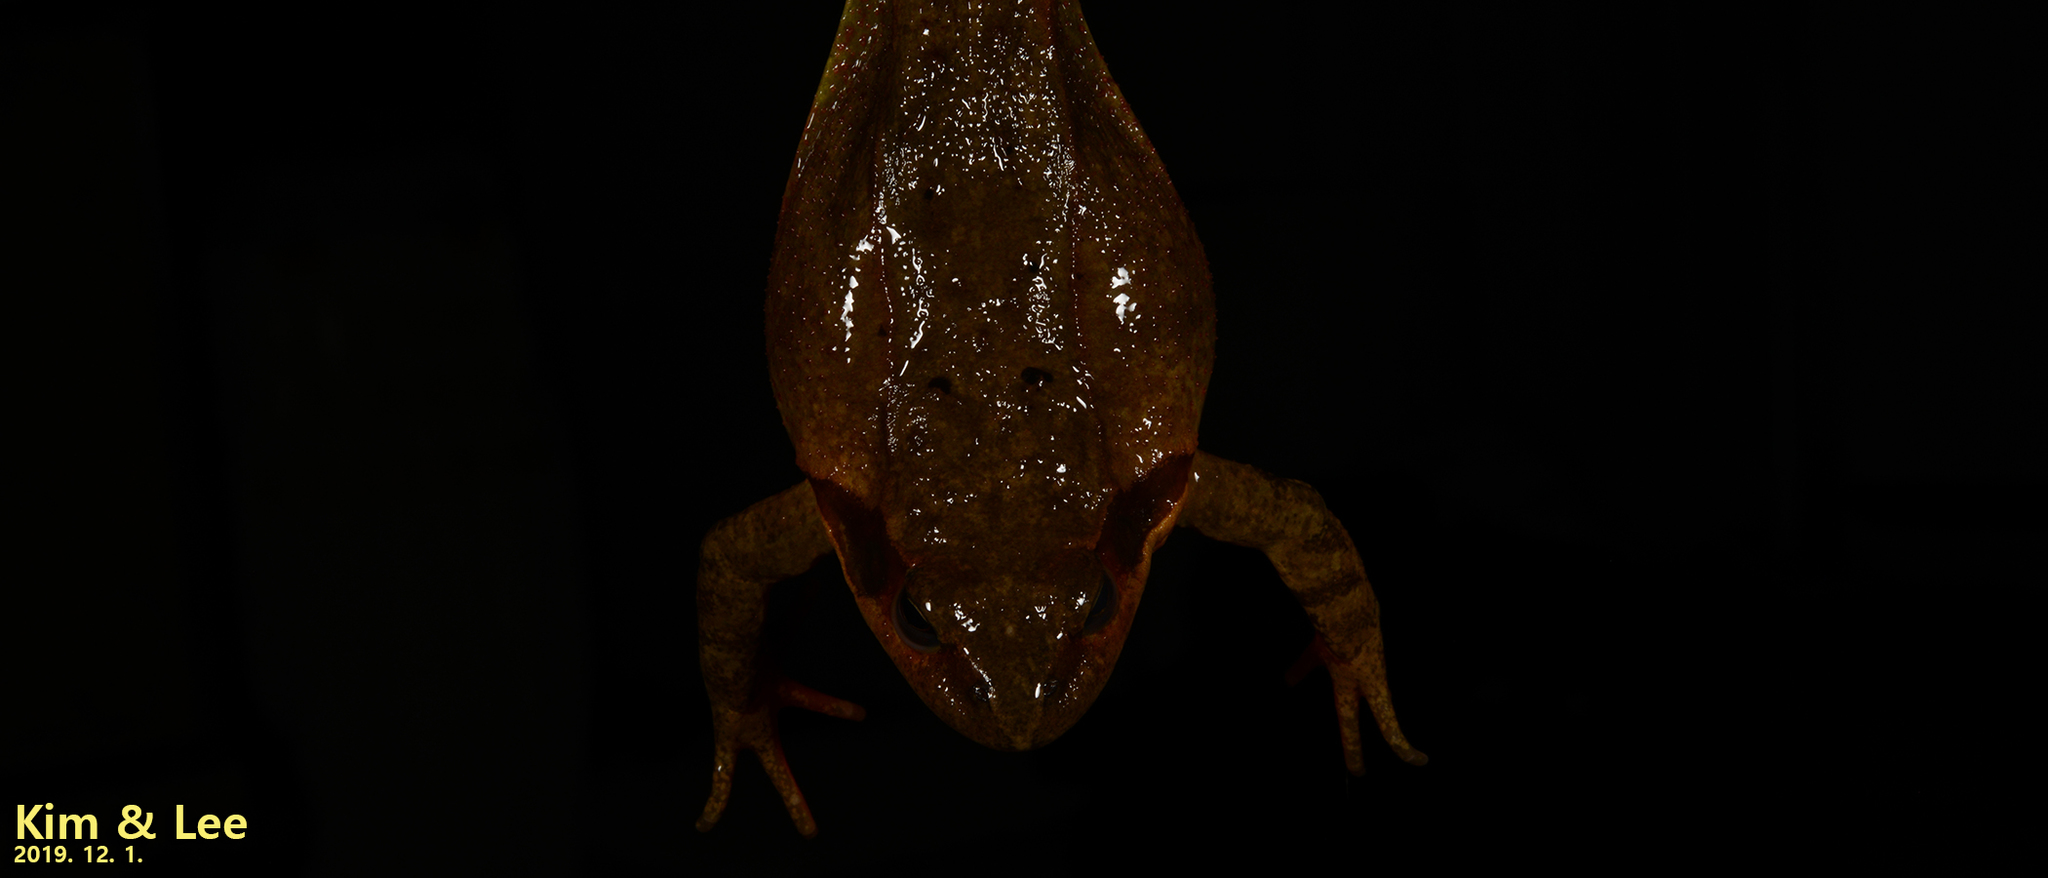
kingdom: Animalia
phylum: Chordata
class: Amphibia
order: Anura
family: Ranidae
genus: Rana
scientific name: Rana dybowskii
